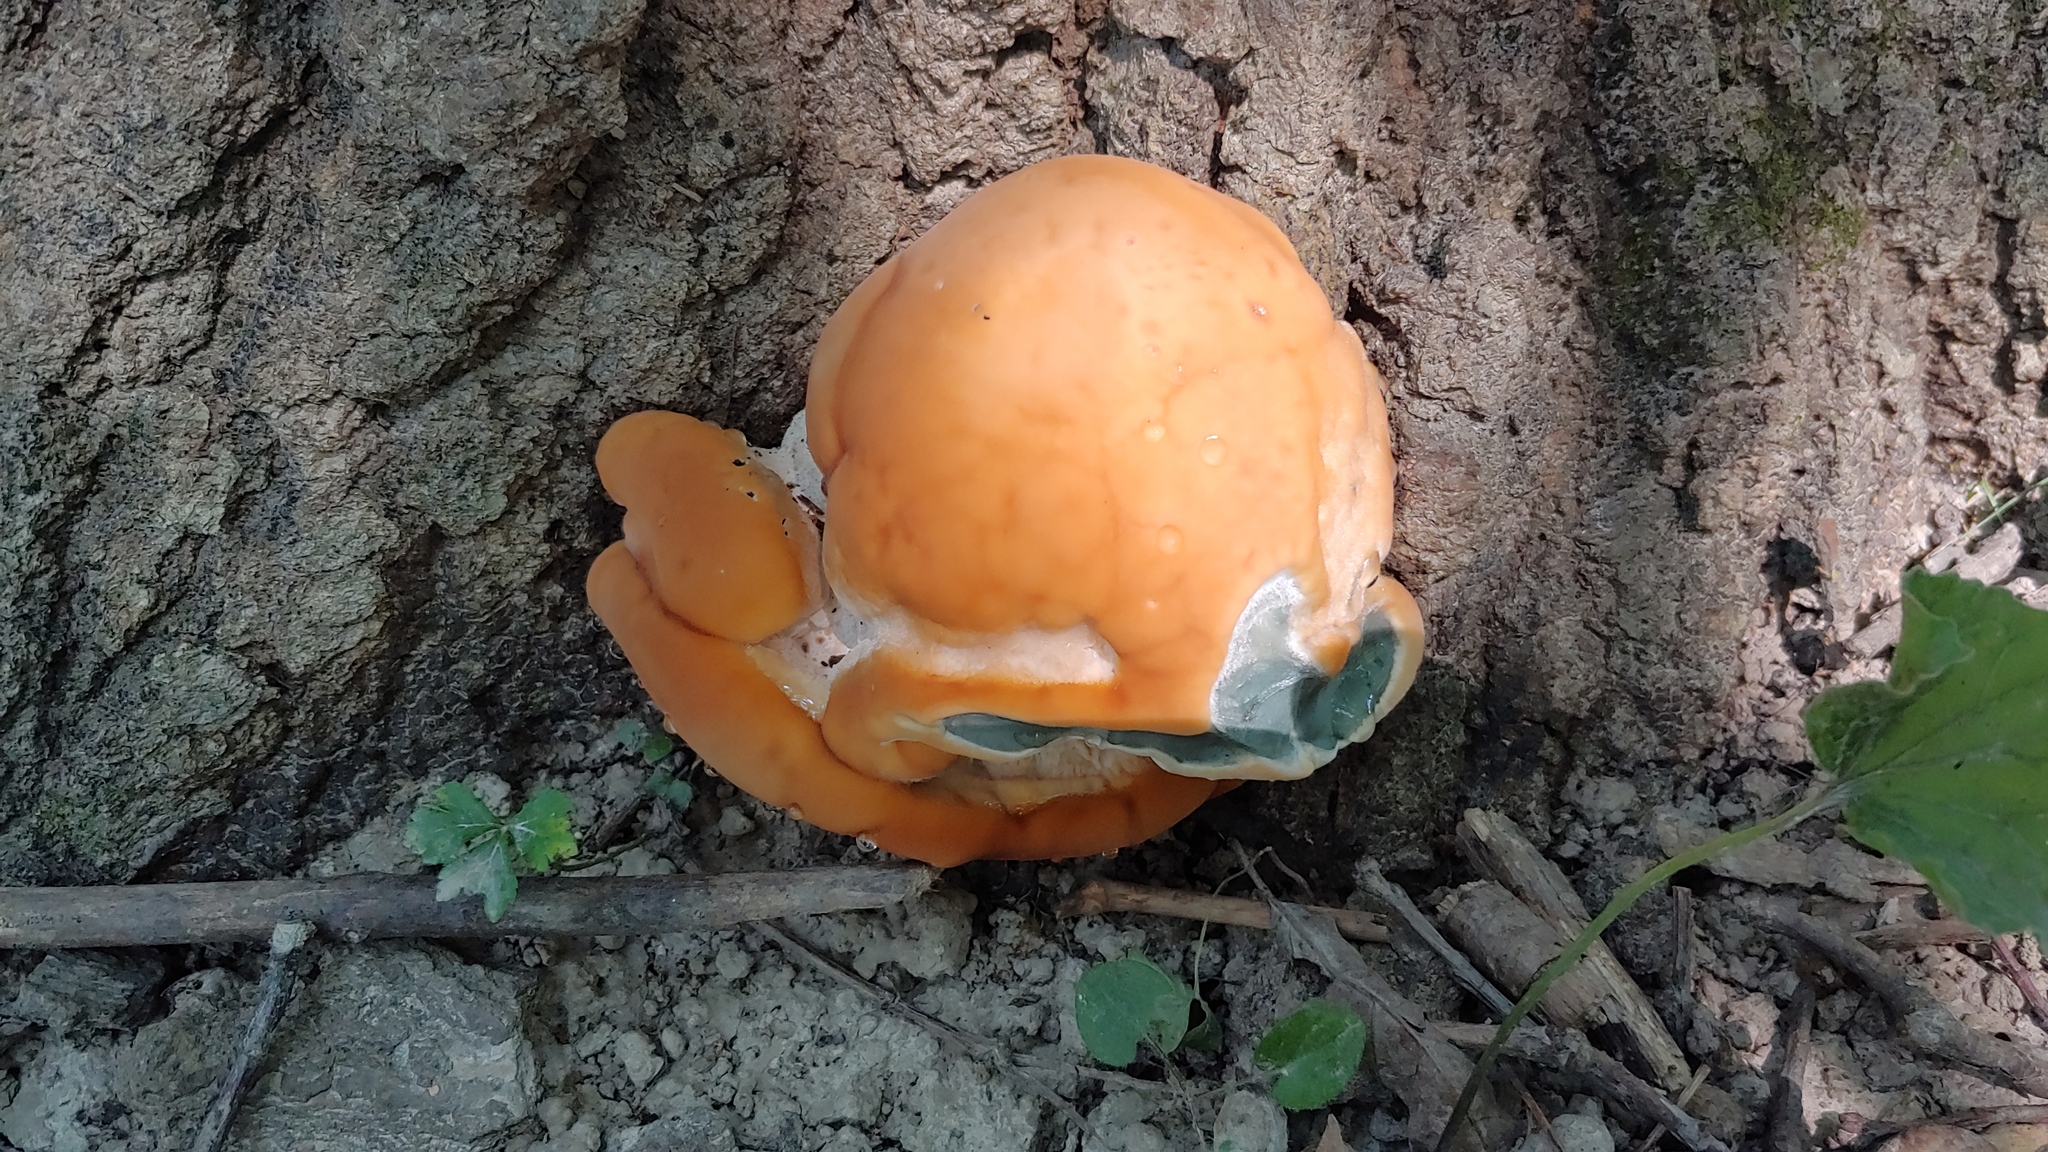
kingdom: Fungi
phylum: Basidiomycota
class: Agaricomycetes
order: Polyporales
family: Fomitopsidaceae
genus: Niveoporofomes
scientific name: Niveoporofomes spraguei
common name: Green cheese polypore
